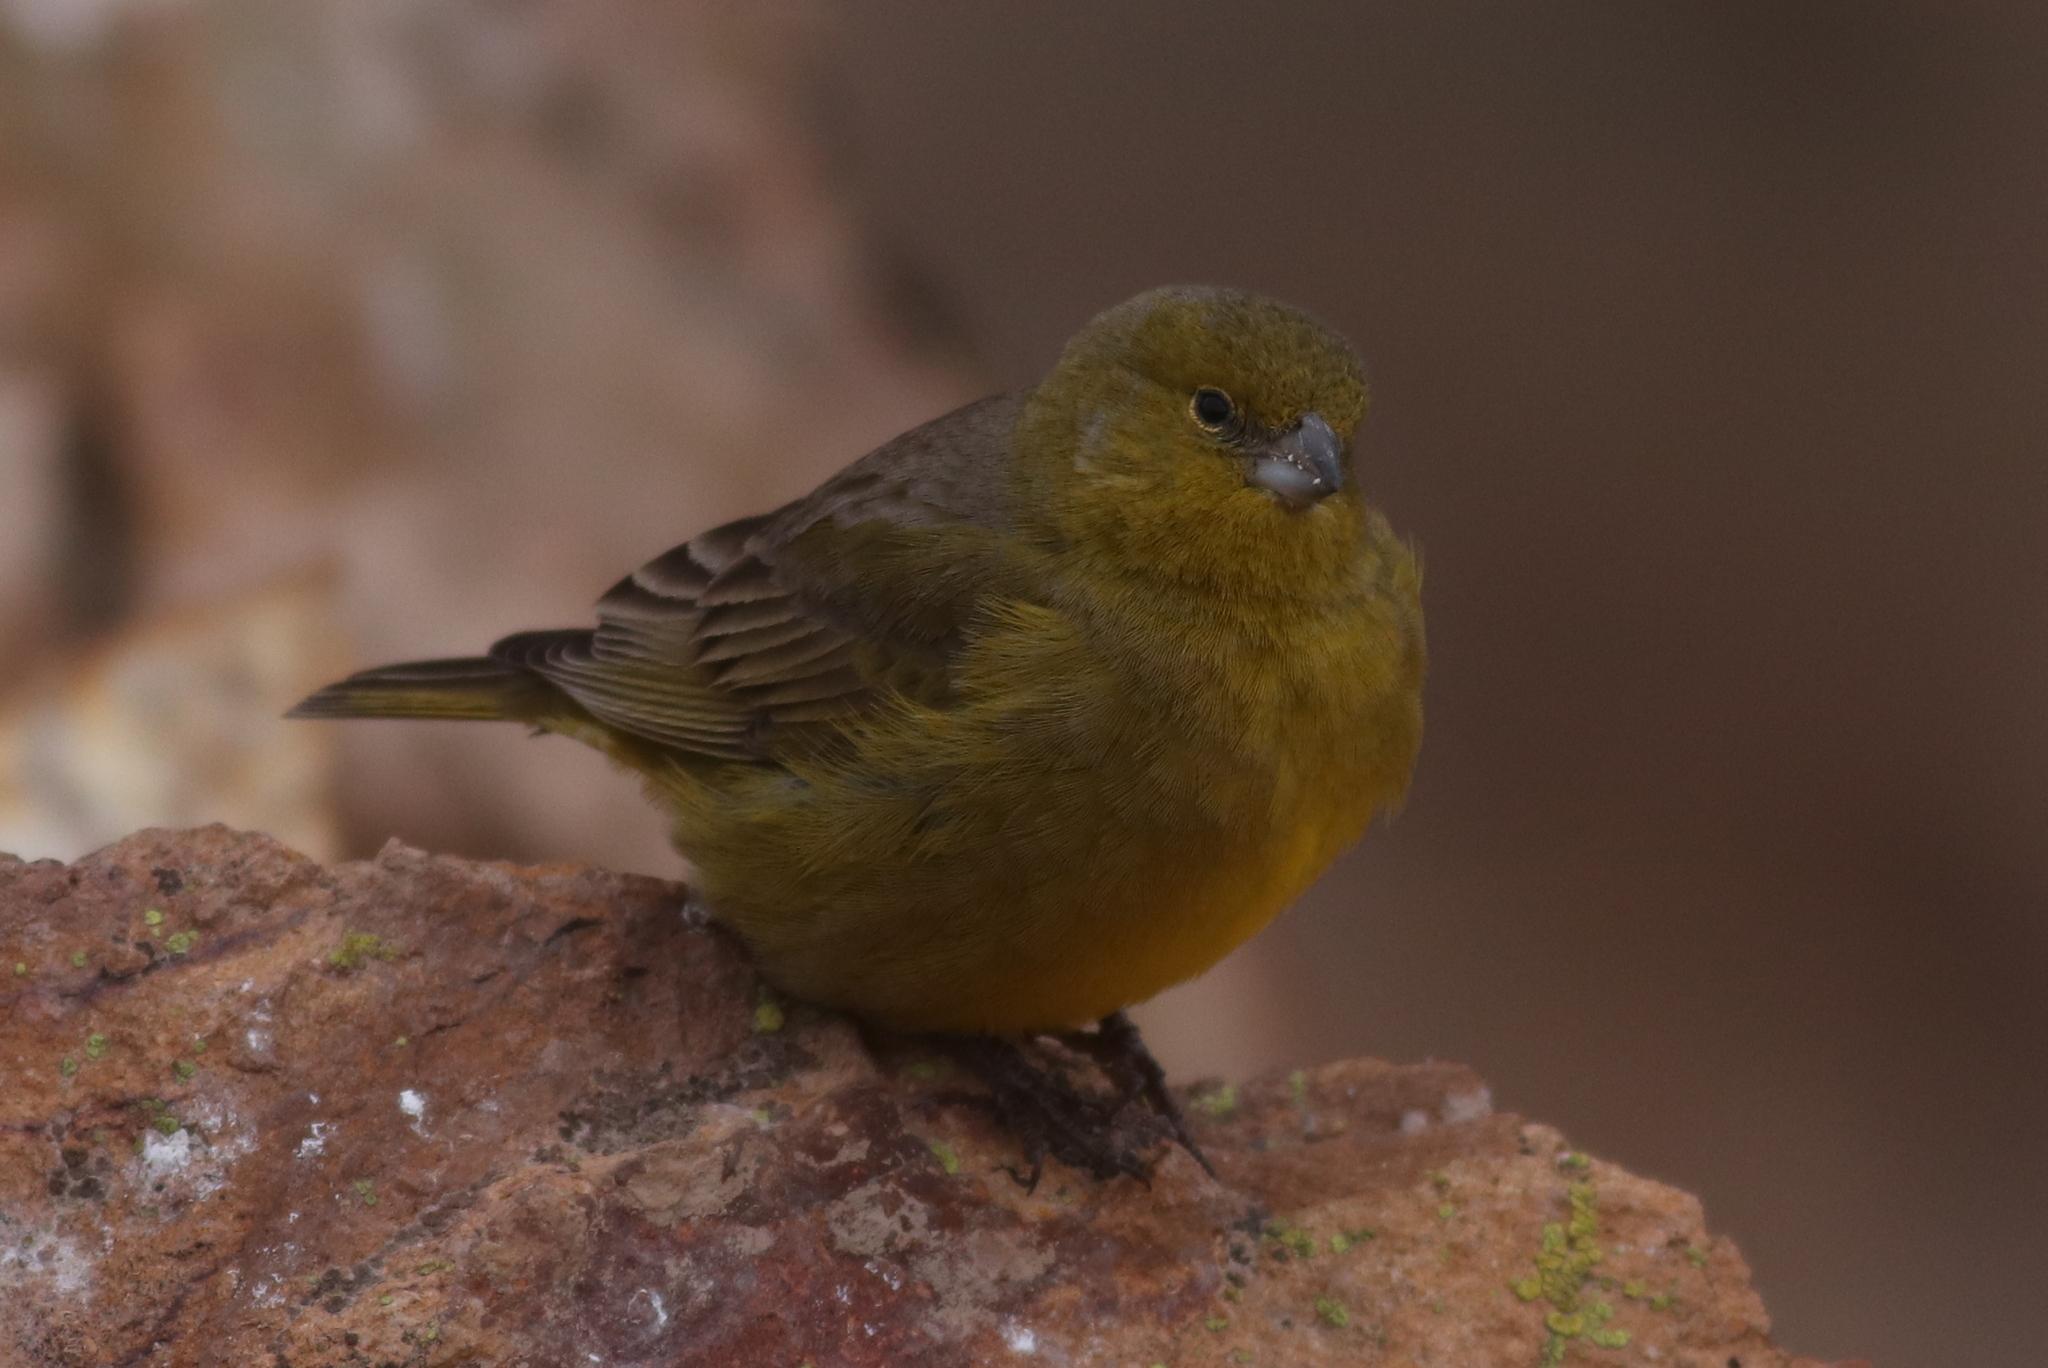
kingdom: Animalia
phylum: Chordata
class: Aves
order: Passeriformes
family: Thraupidae
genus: Sicalis
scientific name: Sicalis olivascens
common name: Greenish yellow finch
